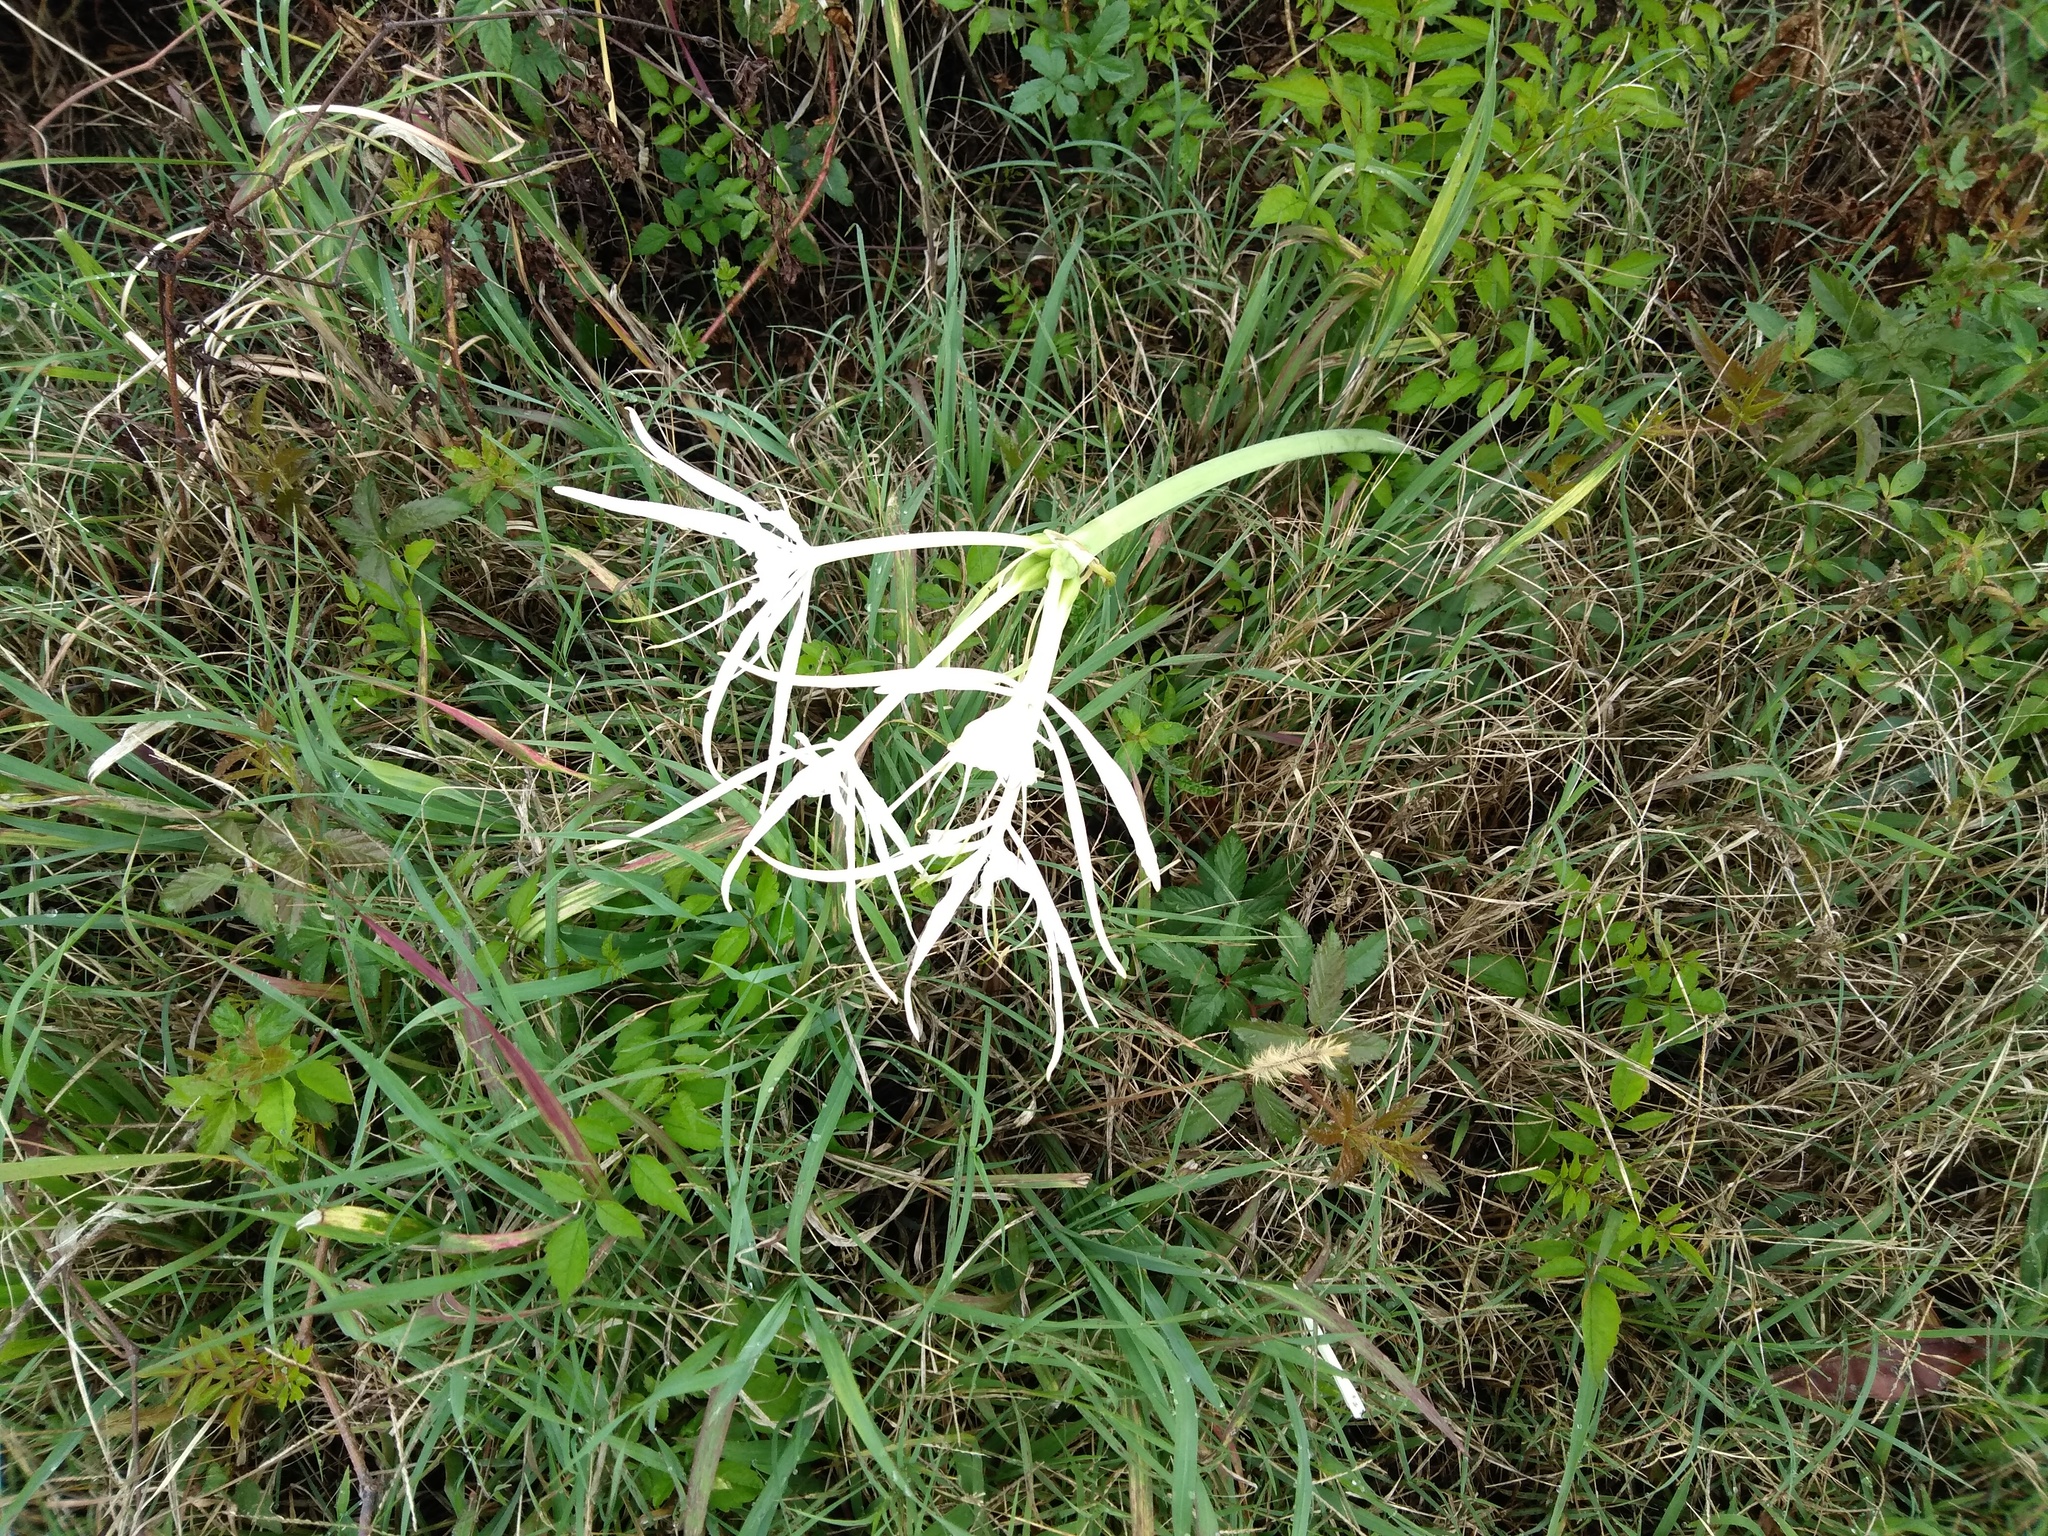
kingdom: Plantae
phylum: Tracheophyta
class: Liliopsida
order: Asparagales
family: Amaryllidaceae
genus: Hymenocallis
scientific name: Hymenocallis occidentalis
